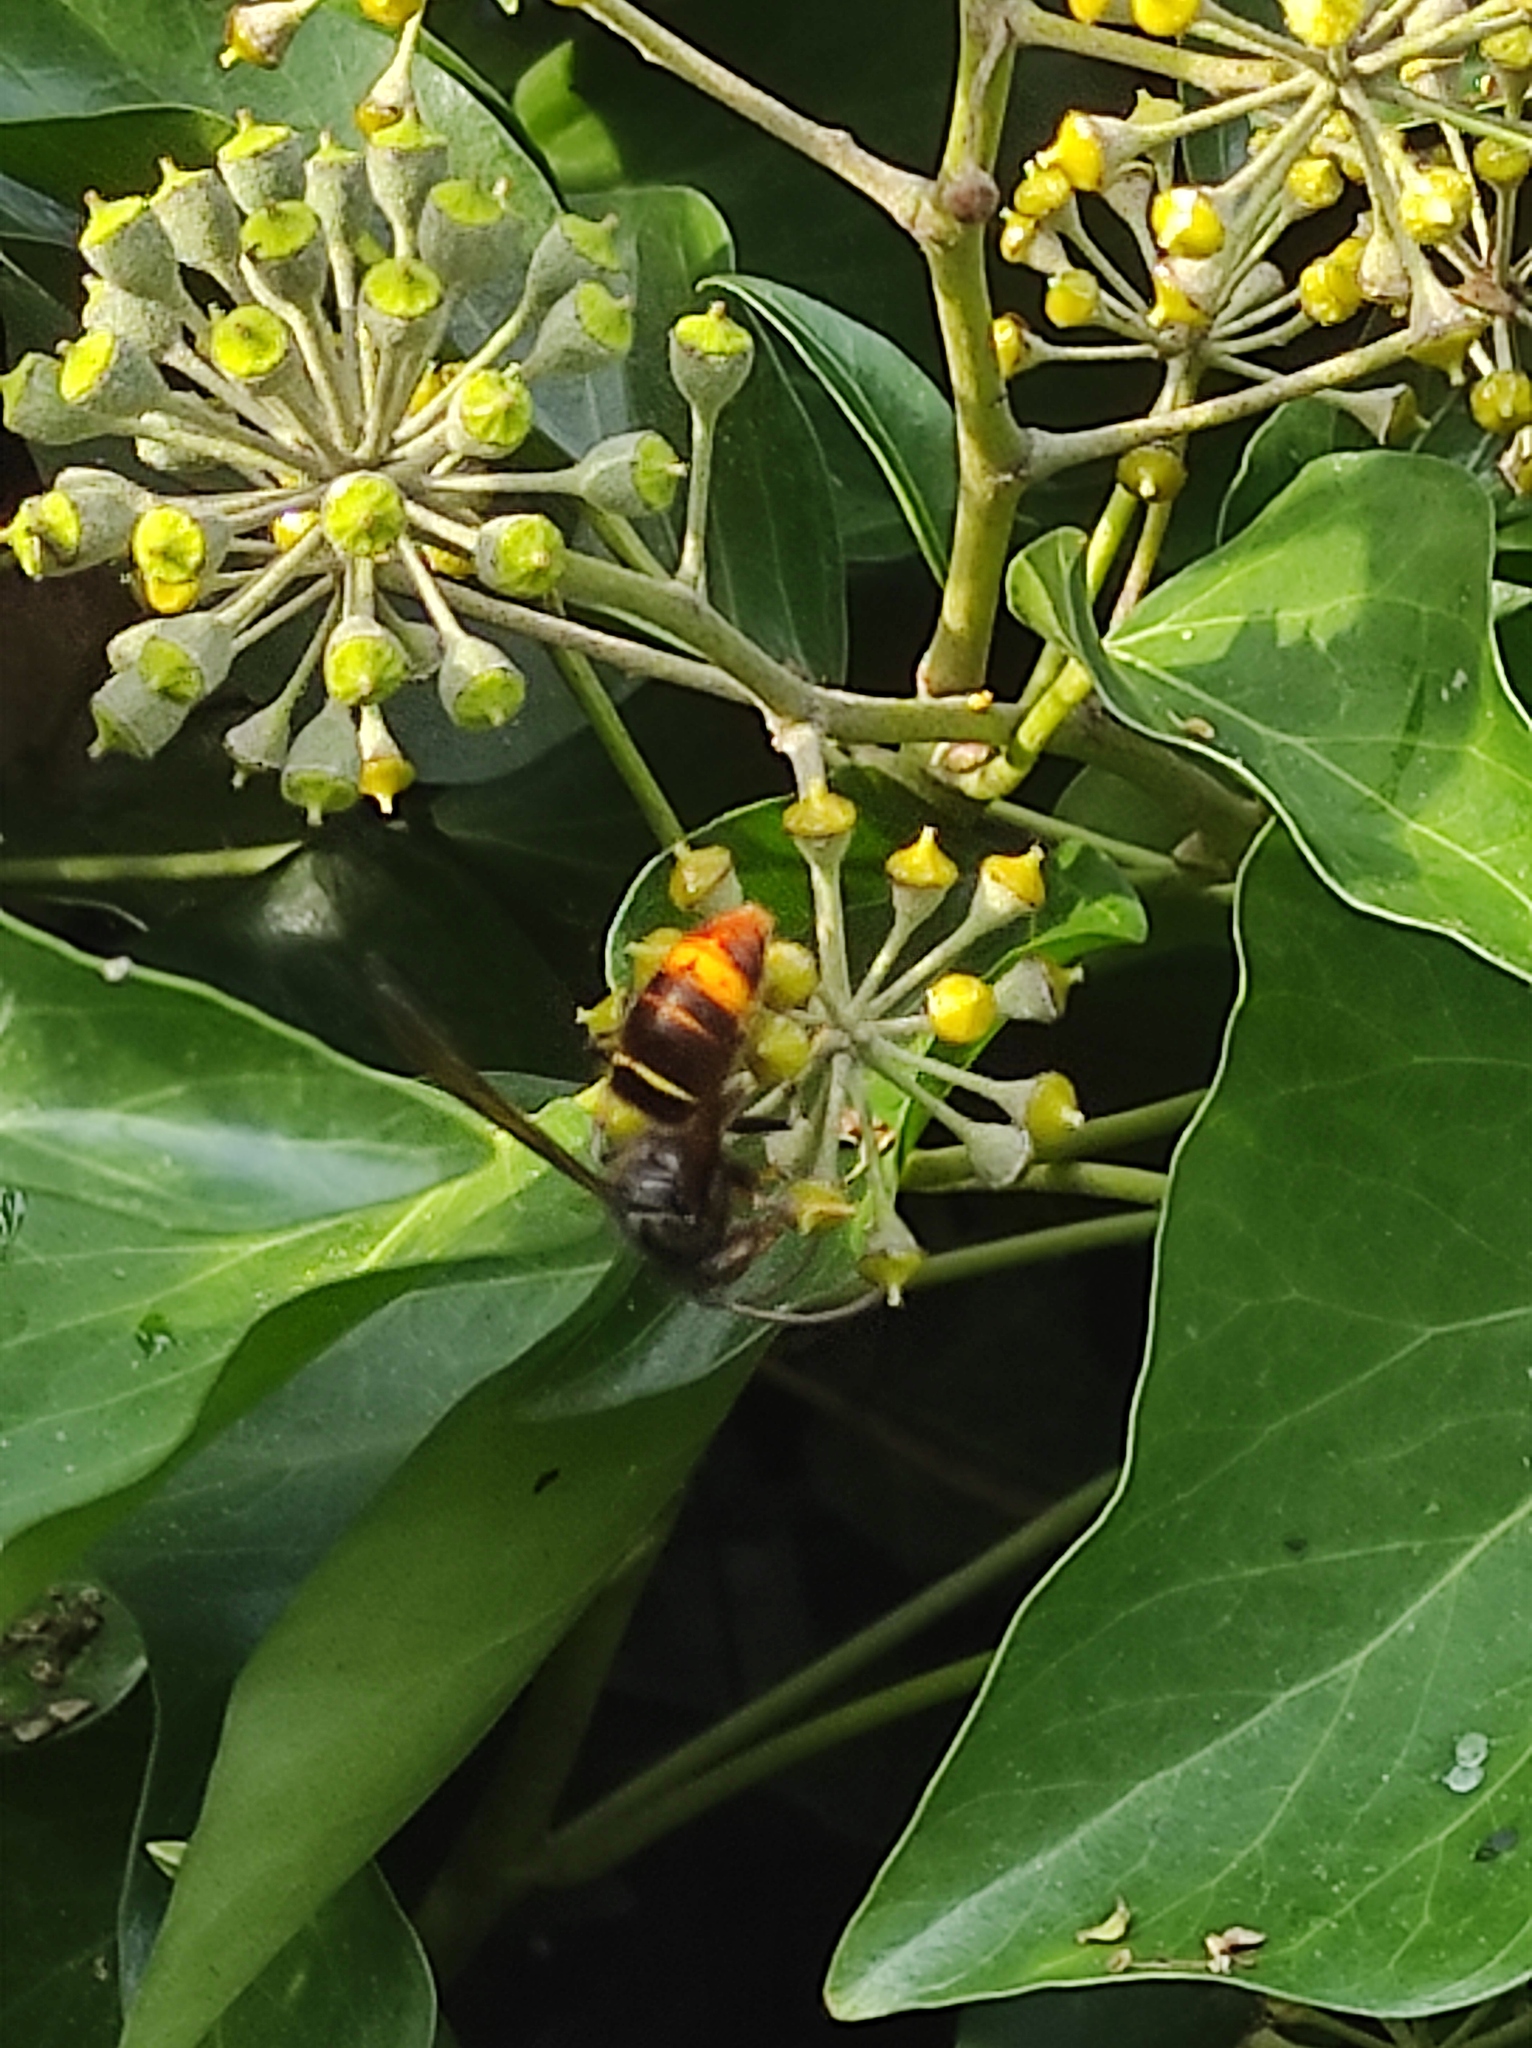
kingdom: Animalia
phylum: Arthropoda
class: Insecta
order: Hymenoptera
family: Vespidae
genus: Vespa
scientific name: Vespa velutina
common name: Asian hornet
